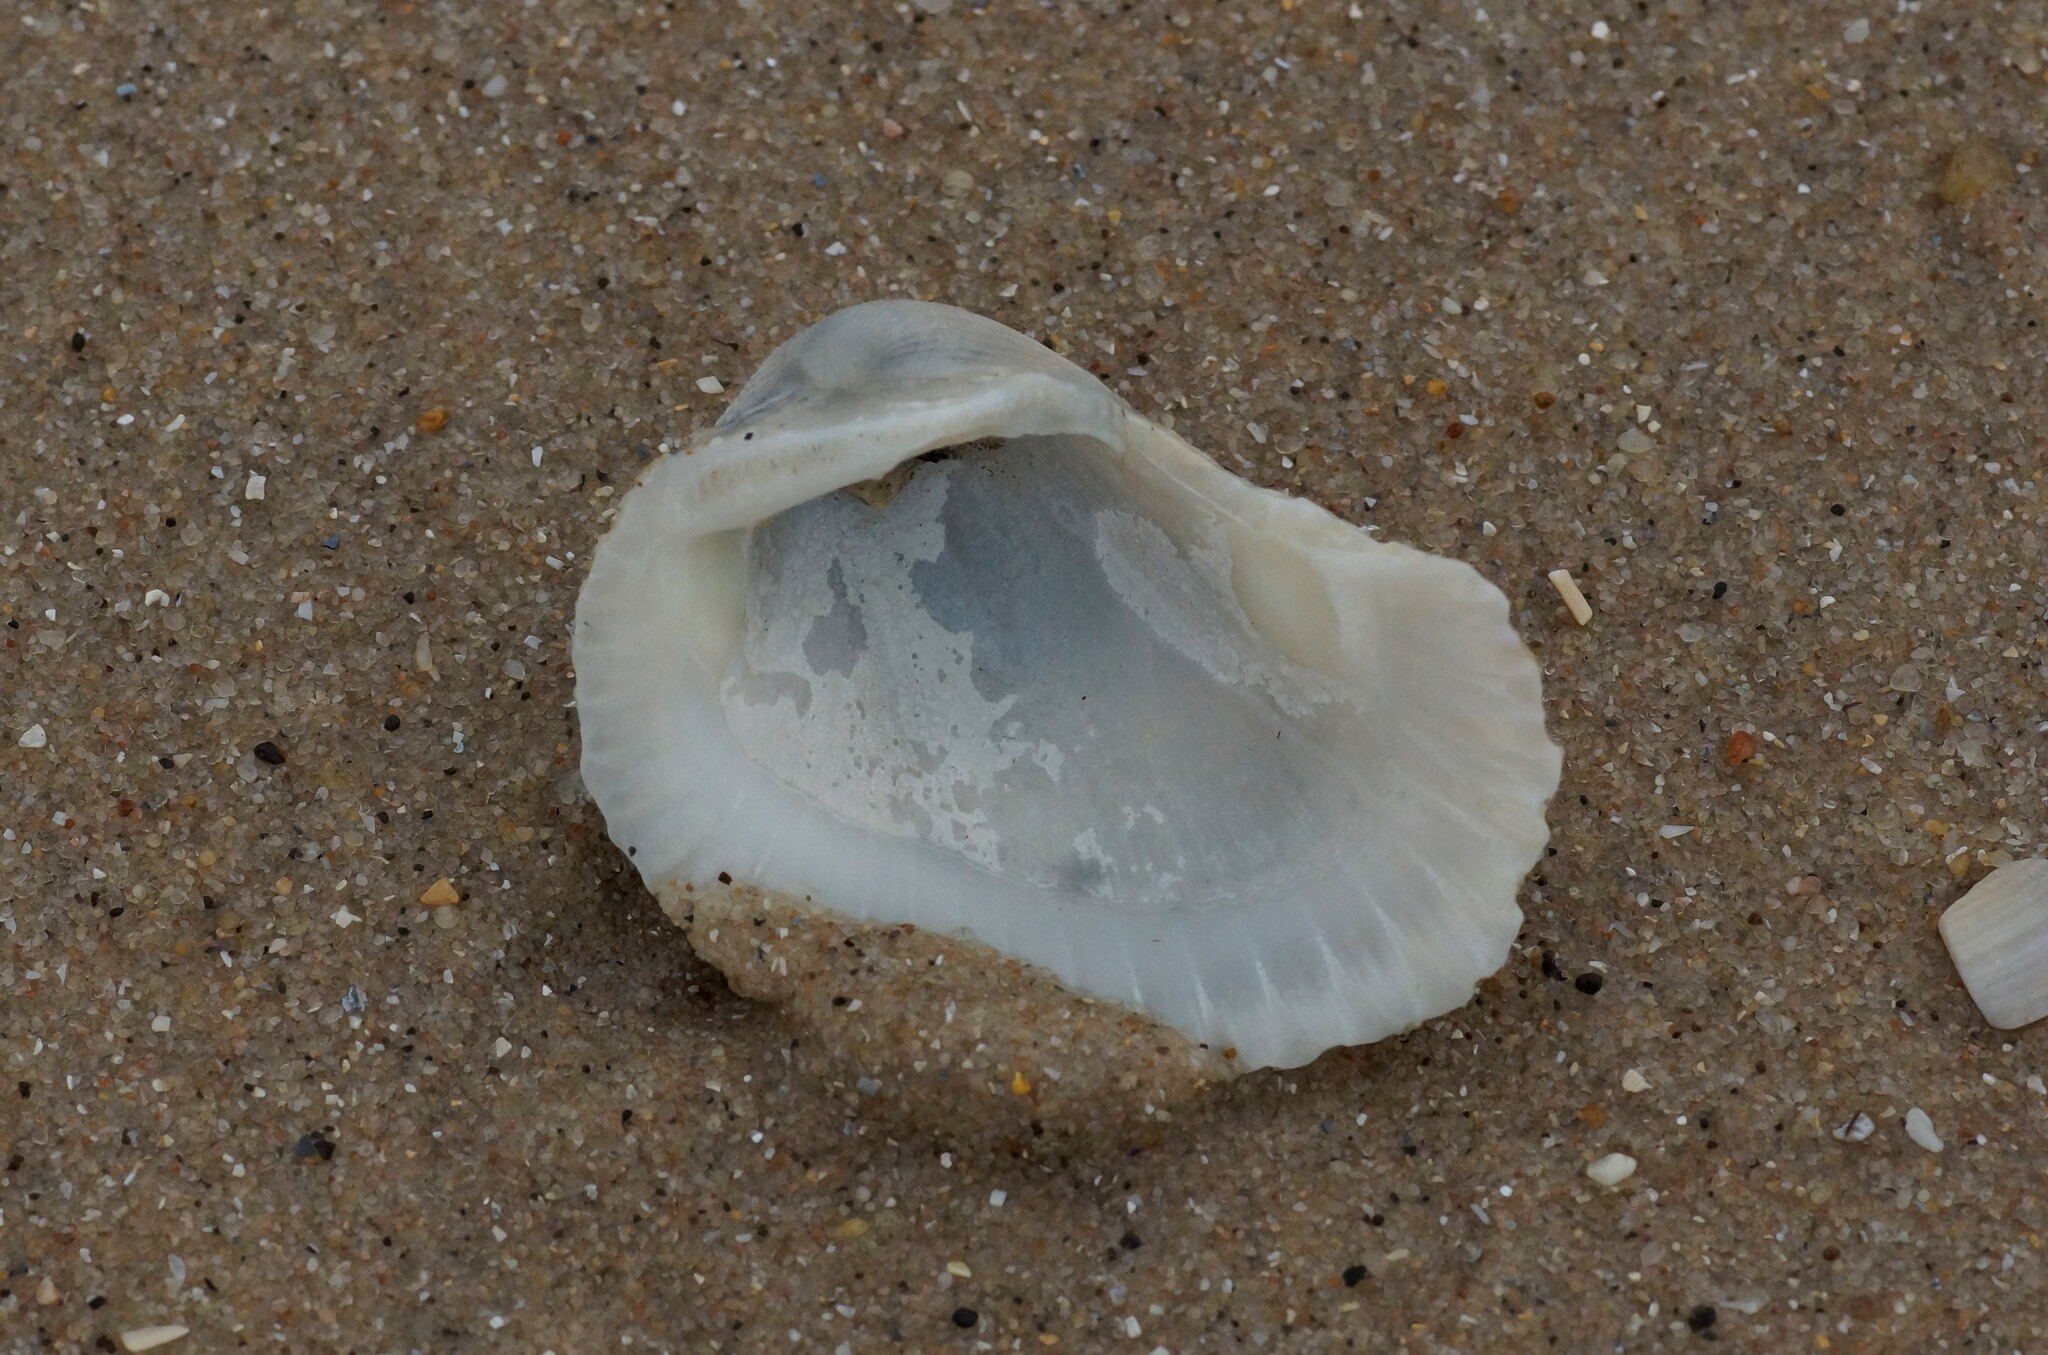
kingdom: Animalia
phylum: Mollusca
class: Bivalvia
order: Arcida
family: Arcidae
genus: Anadara
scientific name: Anadara trapezia
